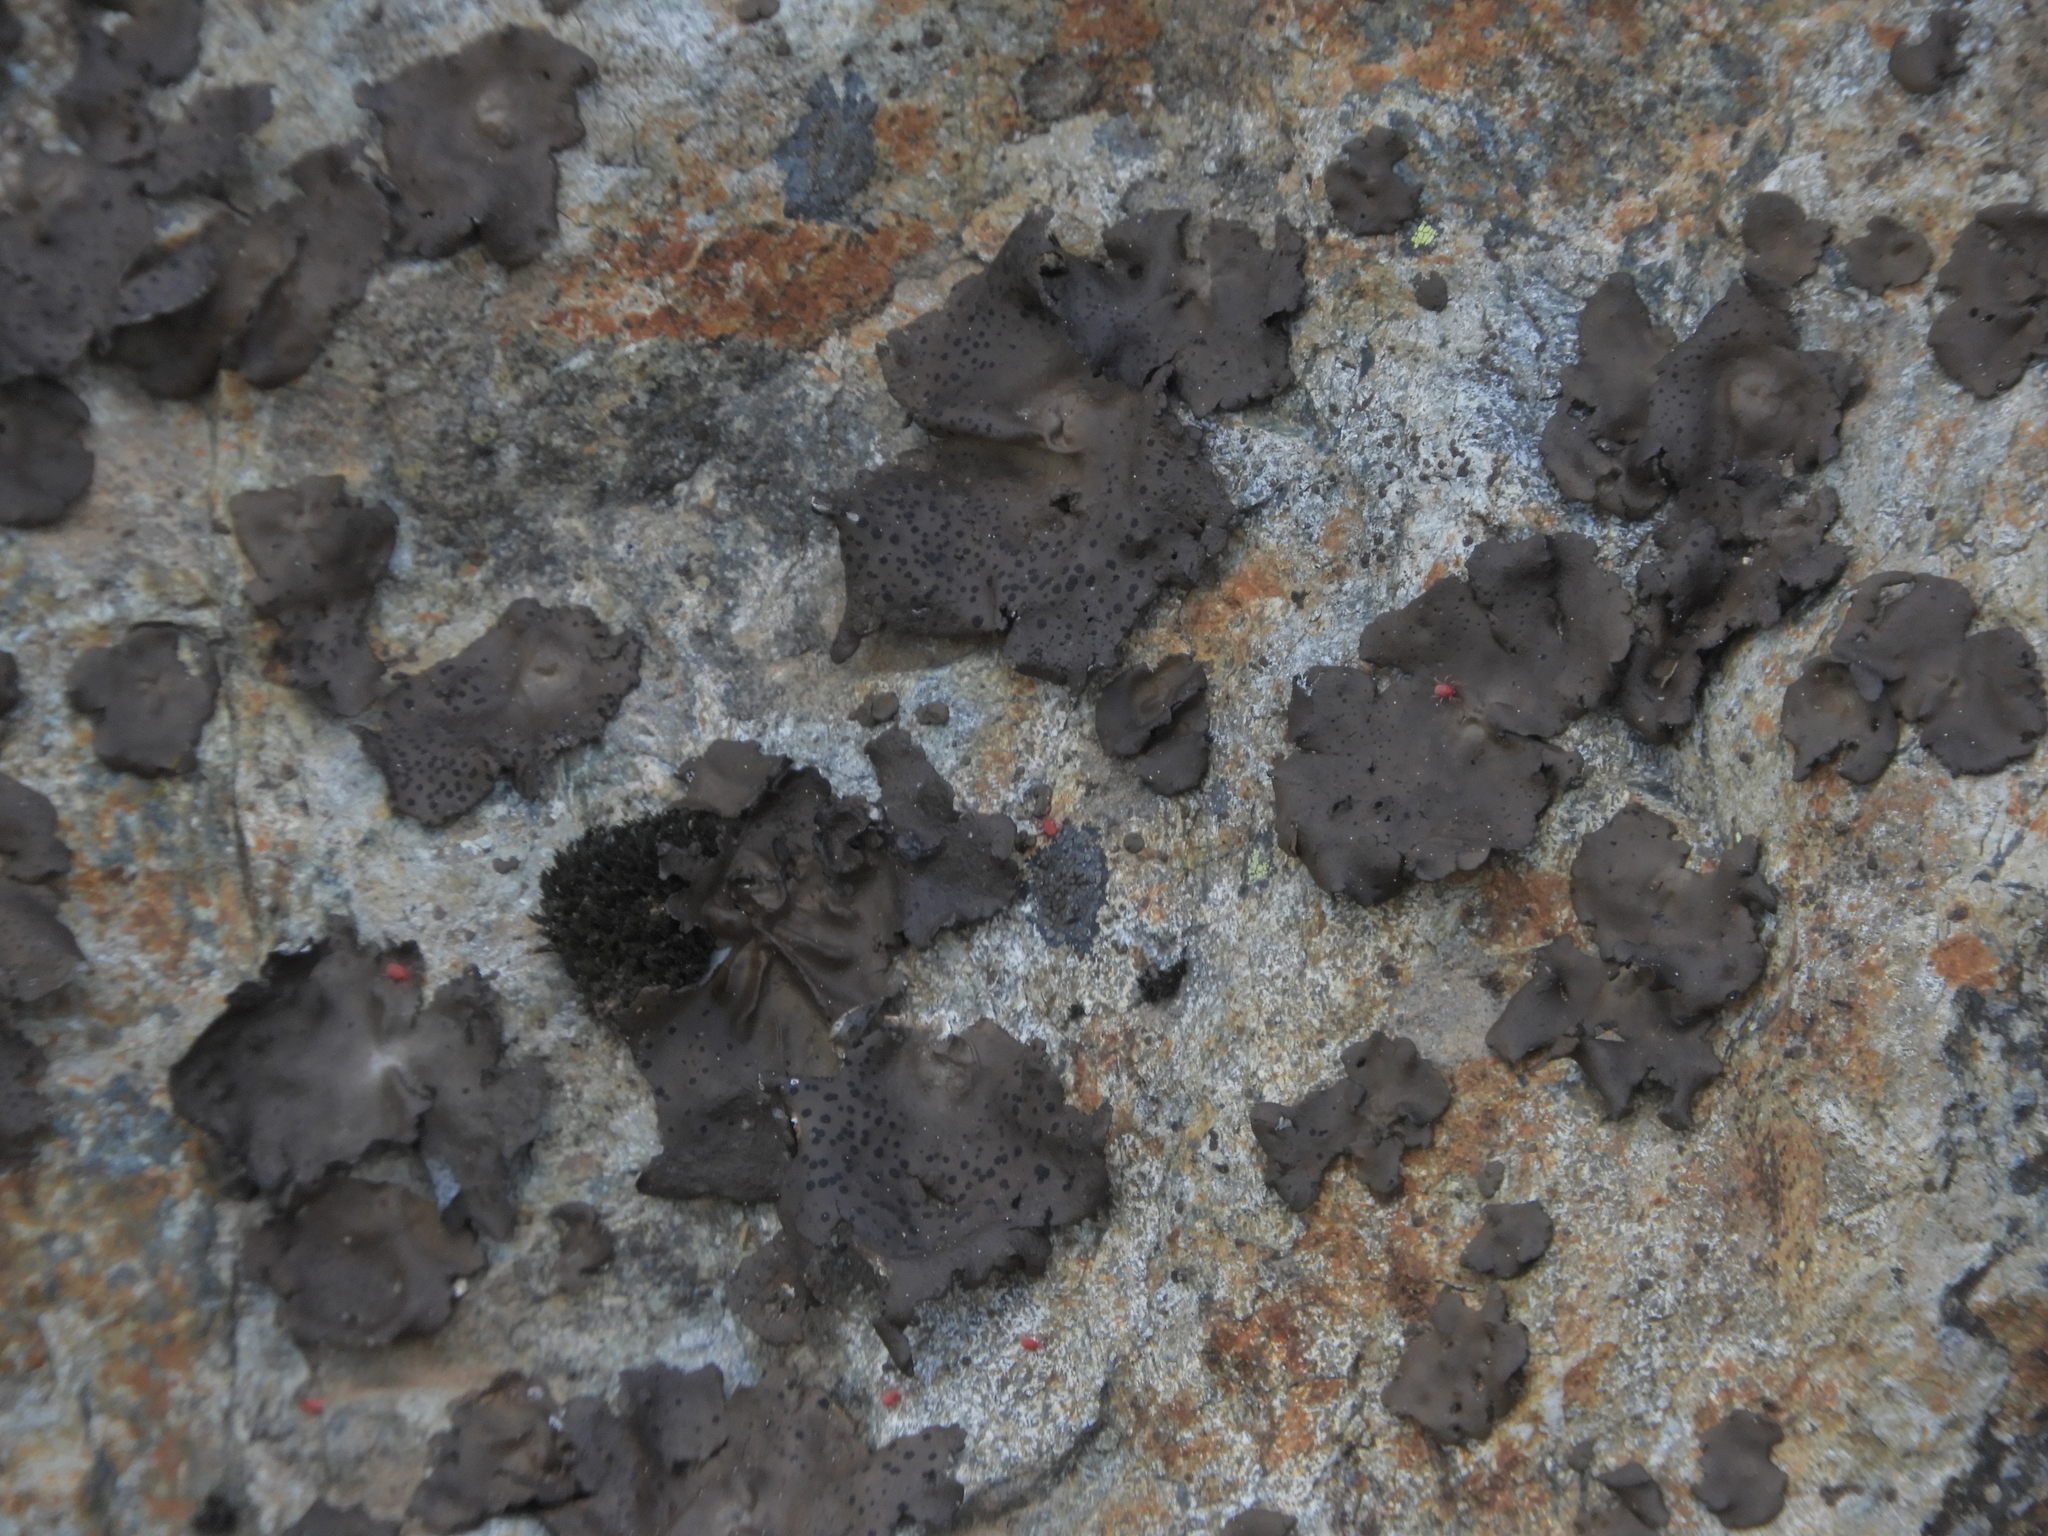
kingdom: Fungi
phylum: Ascomycota
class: Lecanoromycetes
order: Umbilicariales
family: Umbilicariaceae
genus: Umbilicaria
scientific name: Umbilicaria phaea
